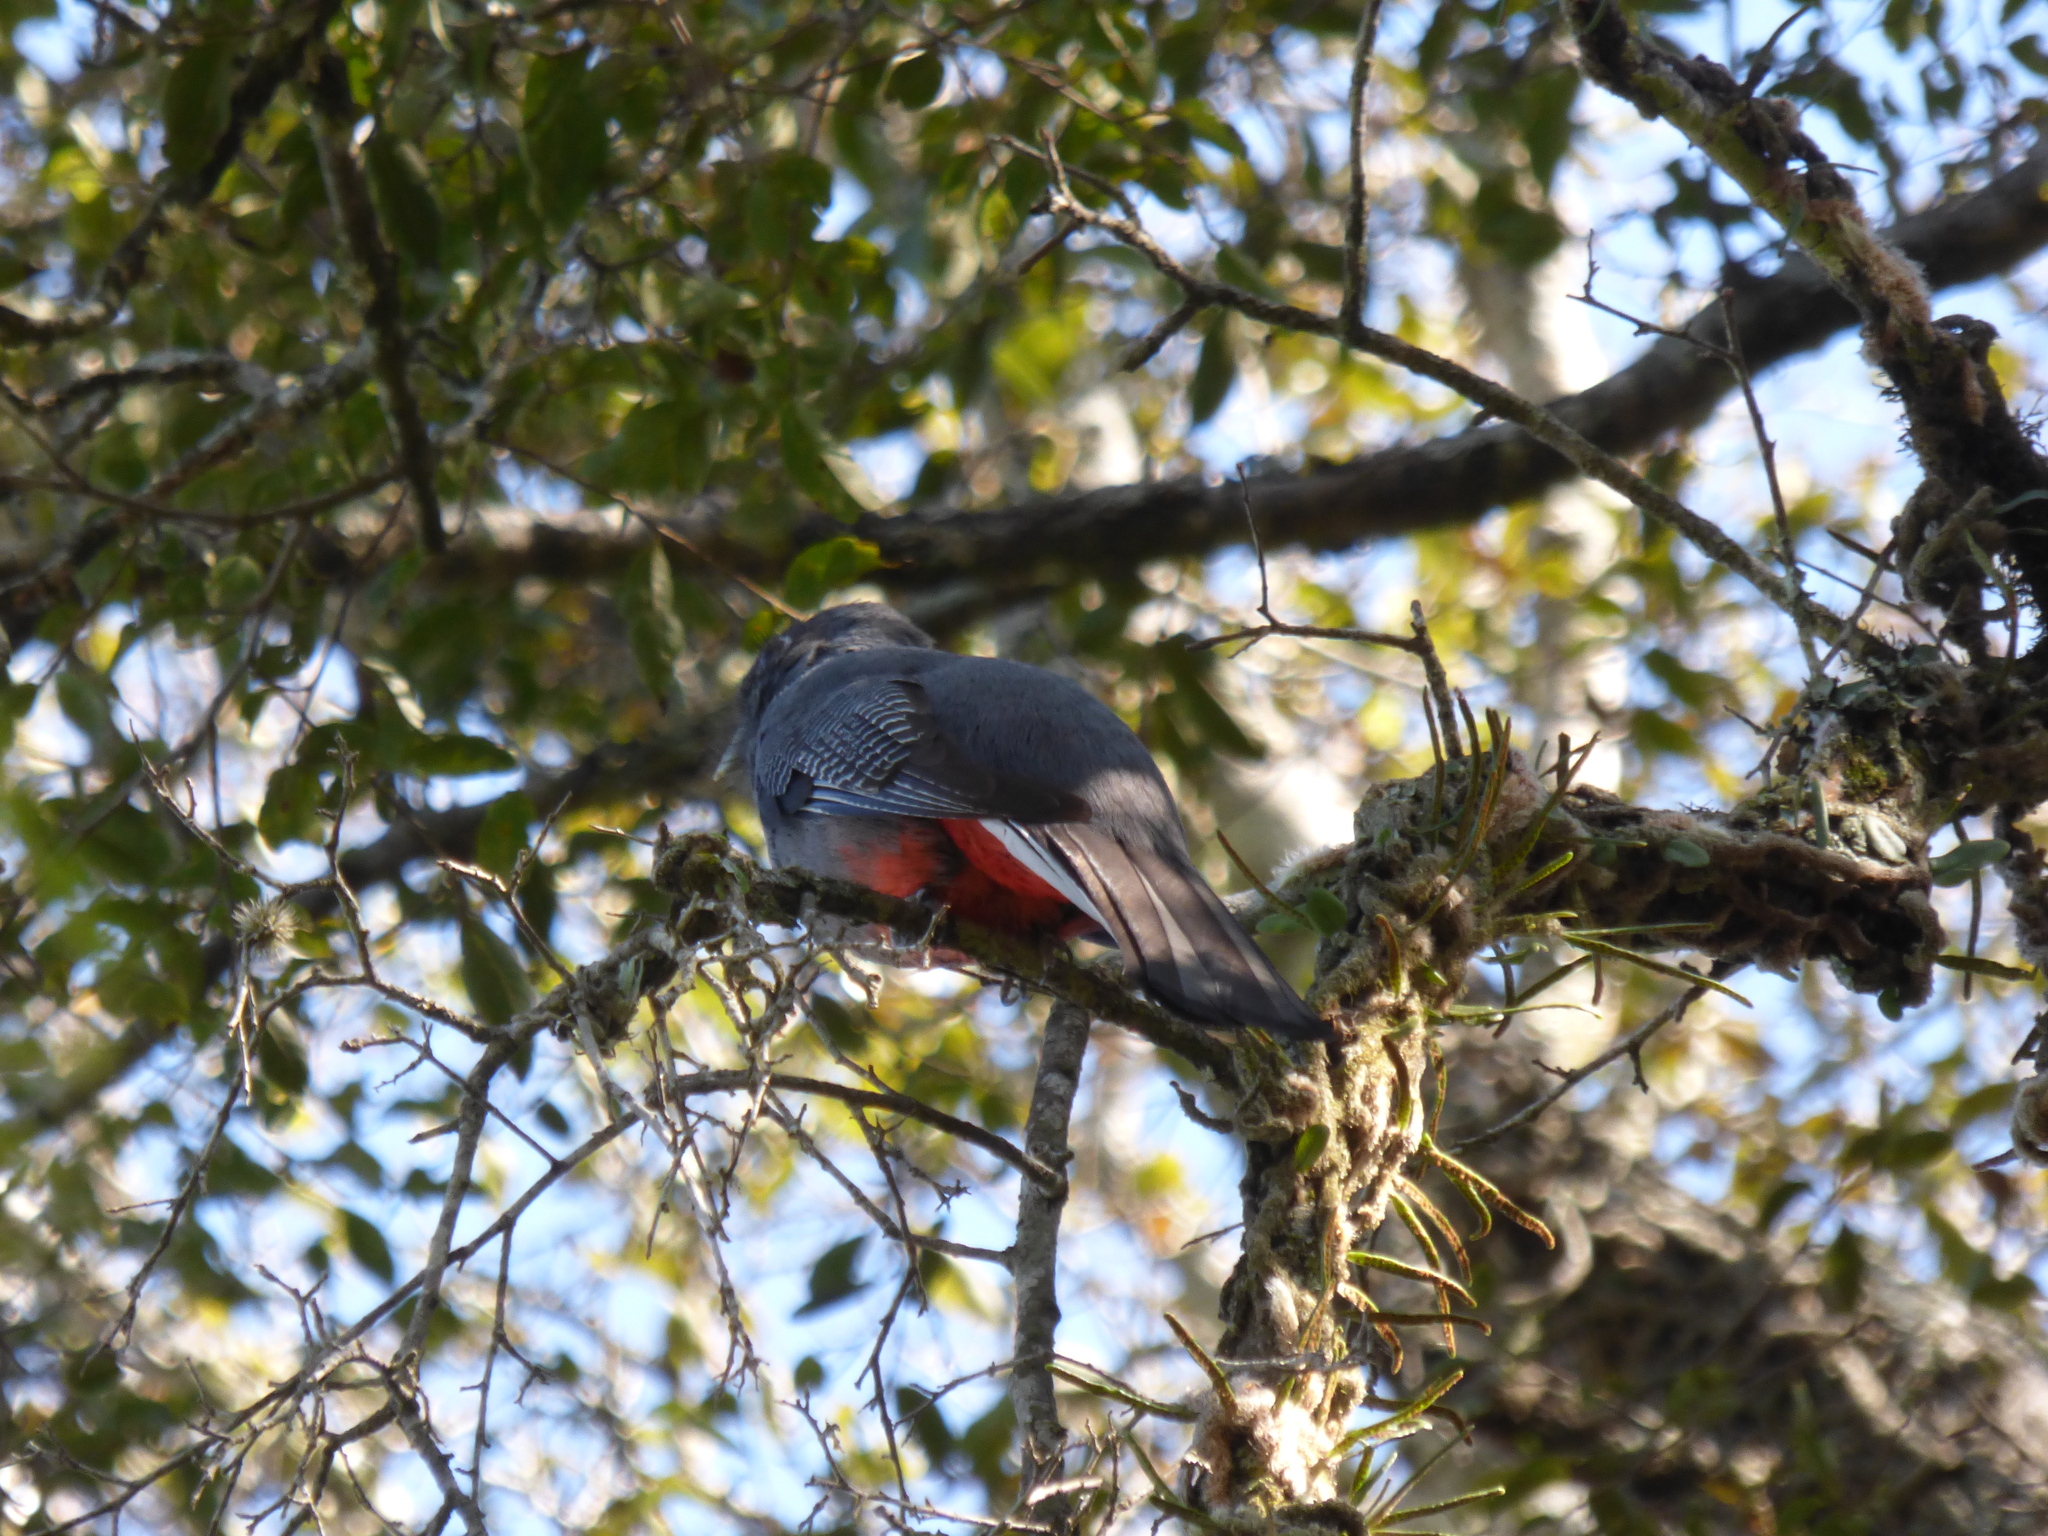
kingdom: Animalia
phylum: Chordata
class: Aves
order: Trogoniformes
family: Trogonidae
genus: Trogon
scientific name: Trogon surrucura
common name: Surucua trogon
